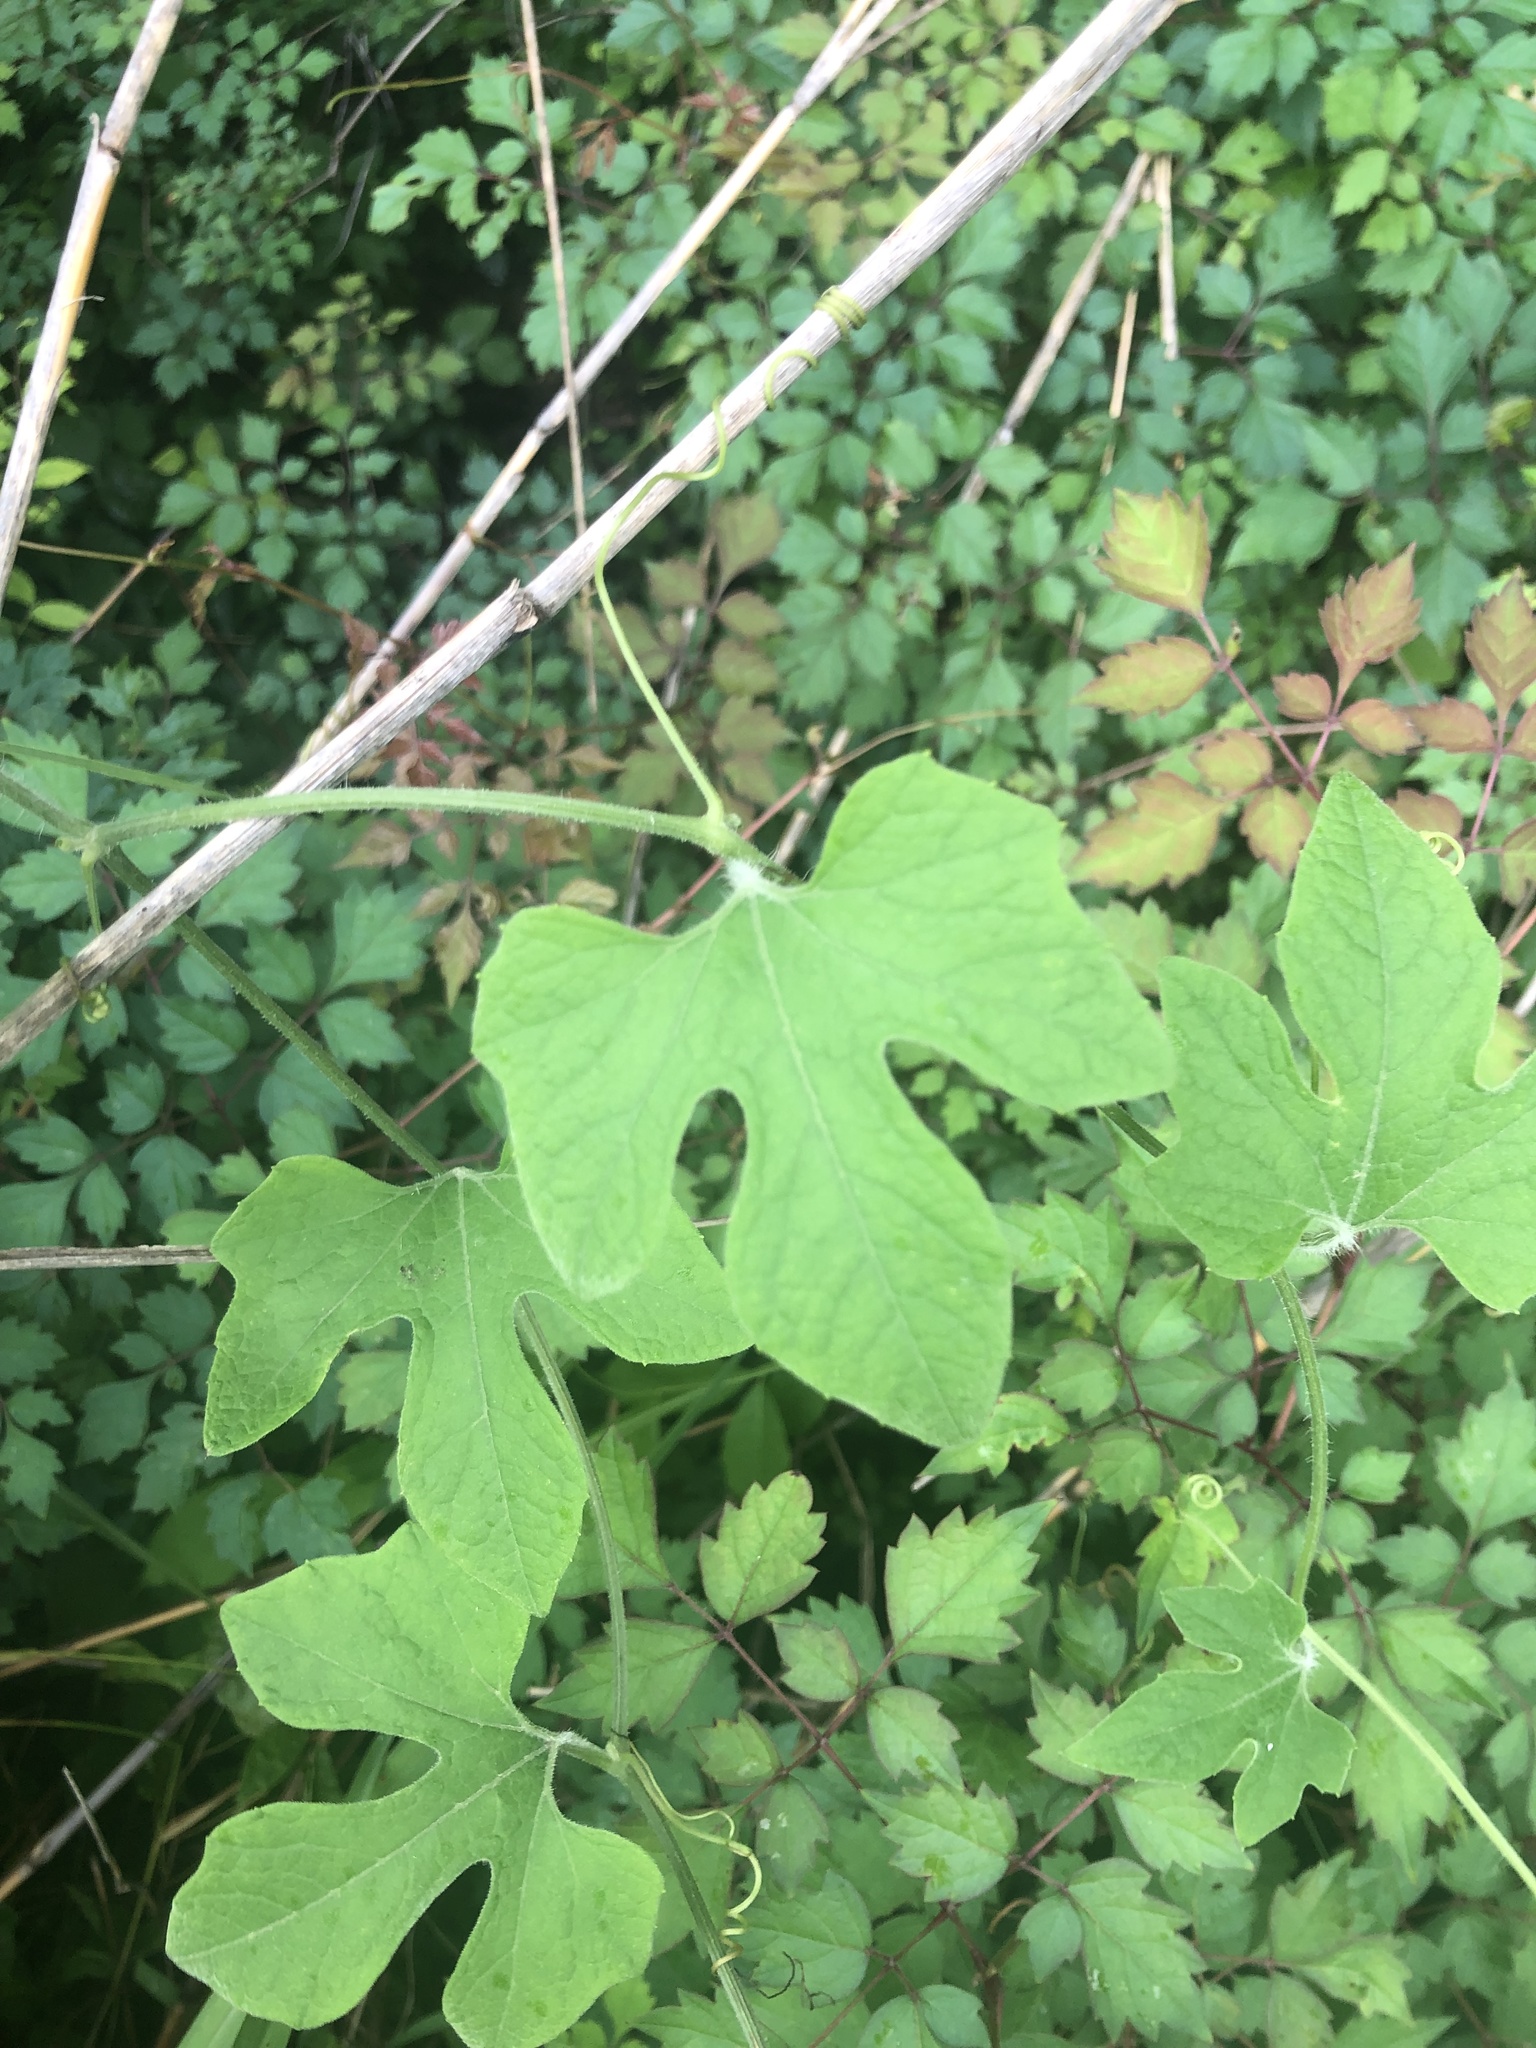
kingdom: Plantae
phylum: Tracheophyta
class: Magnoliopsida
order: Cucurbitales
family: Cucurbitaceae
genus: Cayaponia
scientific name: Cayaponia quinqueloba
